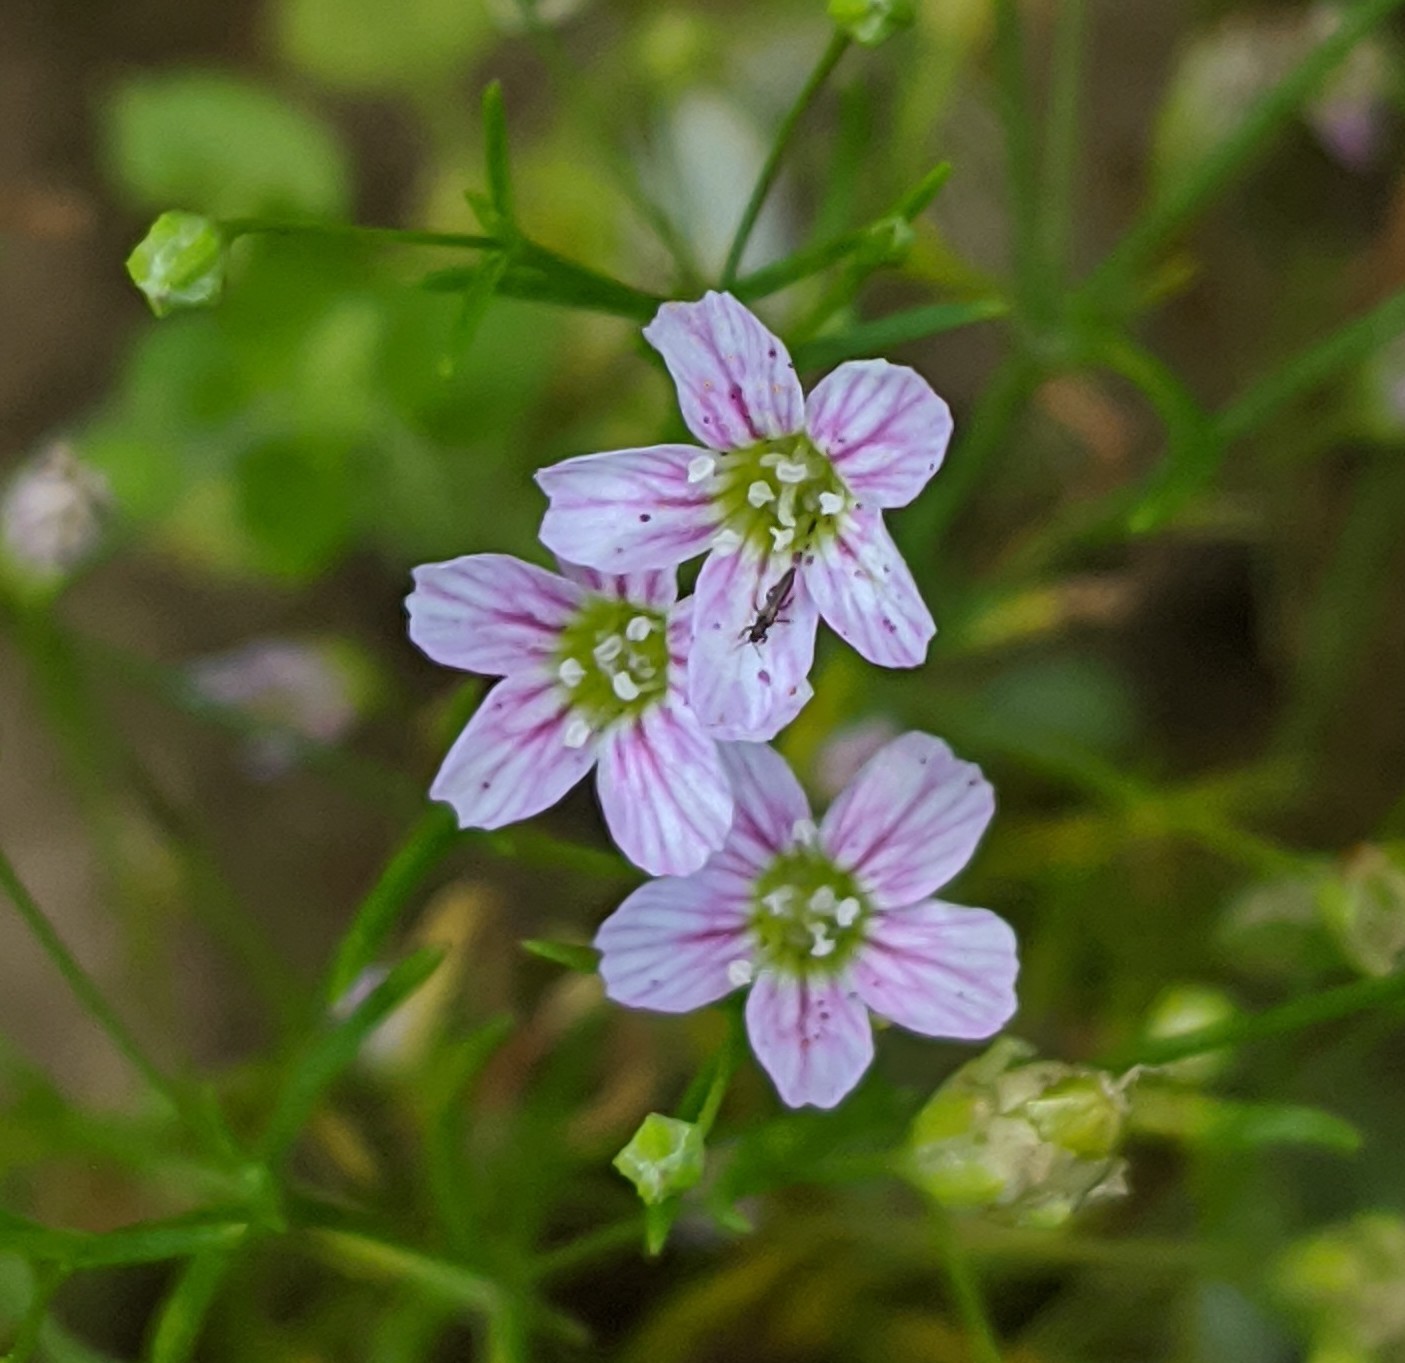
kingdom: Plantae
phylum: Tracheophyta
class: Magnoliopsida
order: Caryophyllales
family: Caryophyllaceae
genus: Psammophiliella
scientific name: Psammophiliella muralis
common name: Cushion baby's-breath
